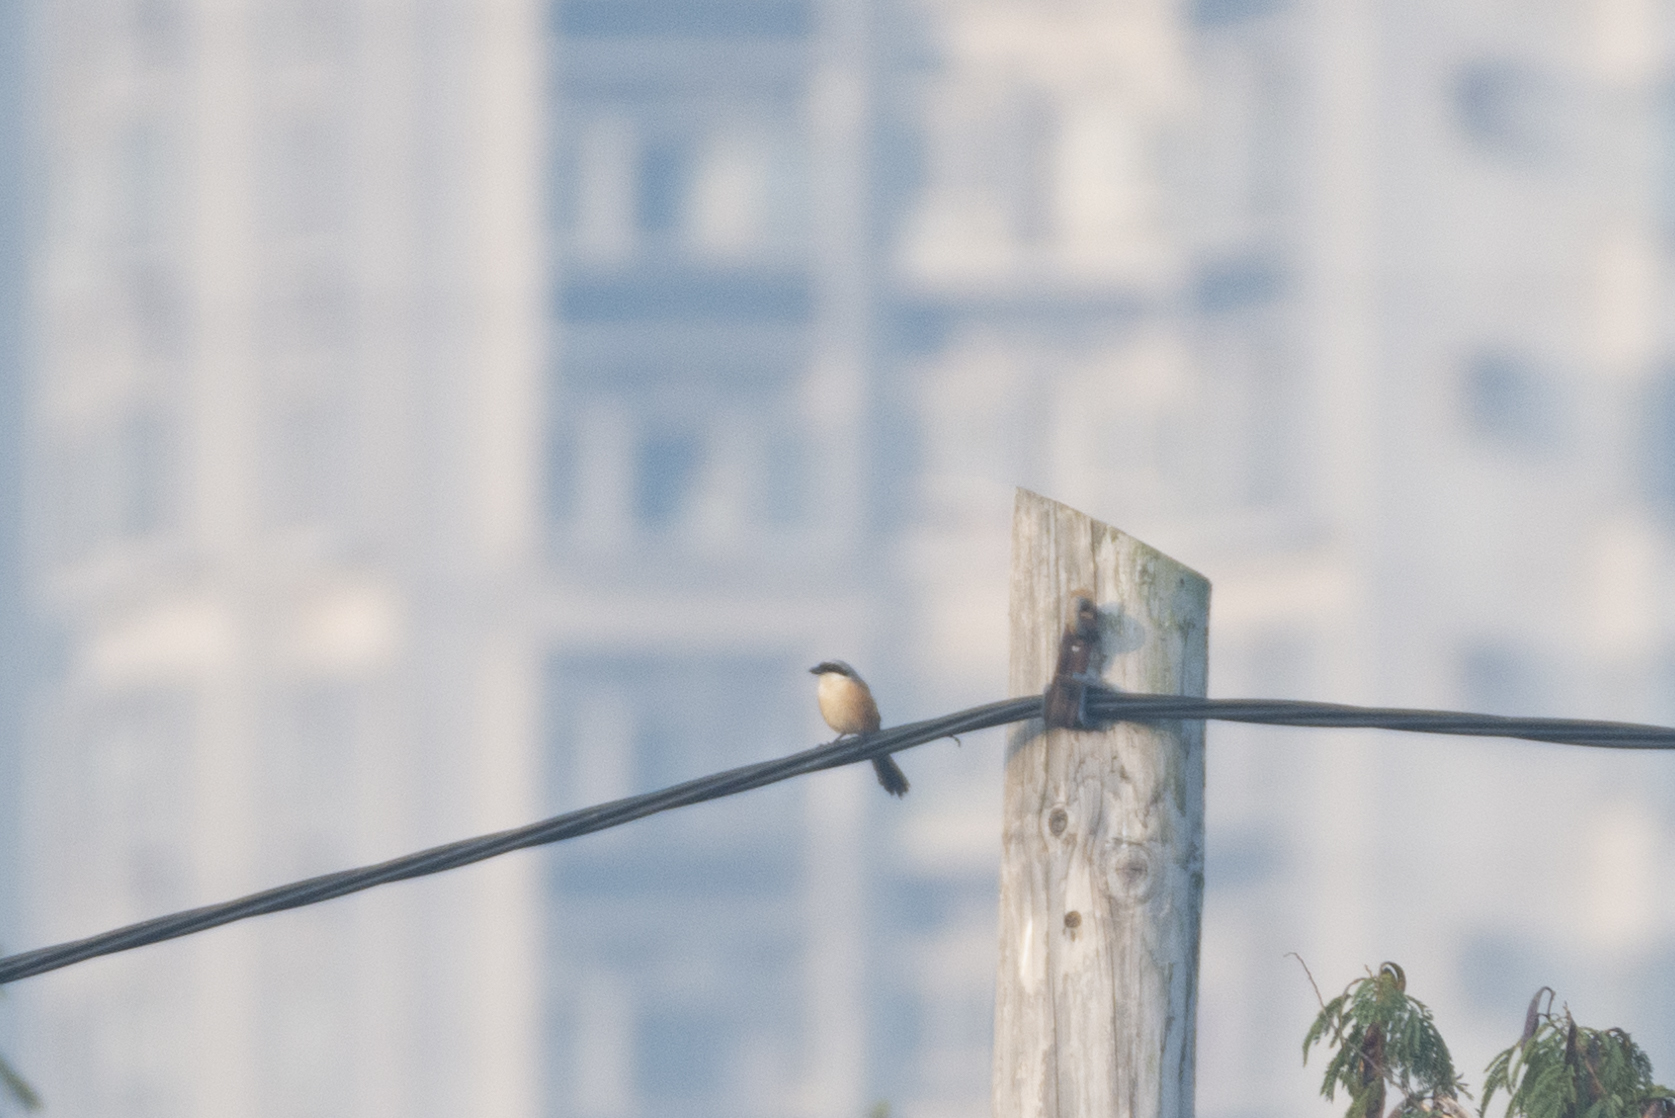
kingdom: Animalia
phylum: Chordata
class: Aves
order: Passeriformes
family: Laniidae
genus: Lanius
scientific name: Lanius schach
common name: Long-tailed shrike
